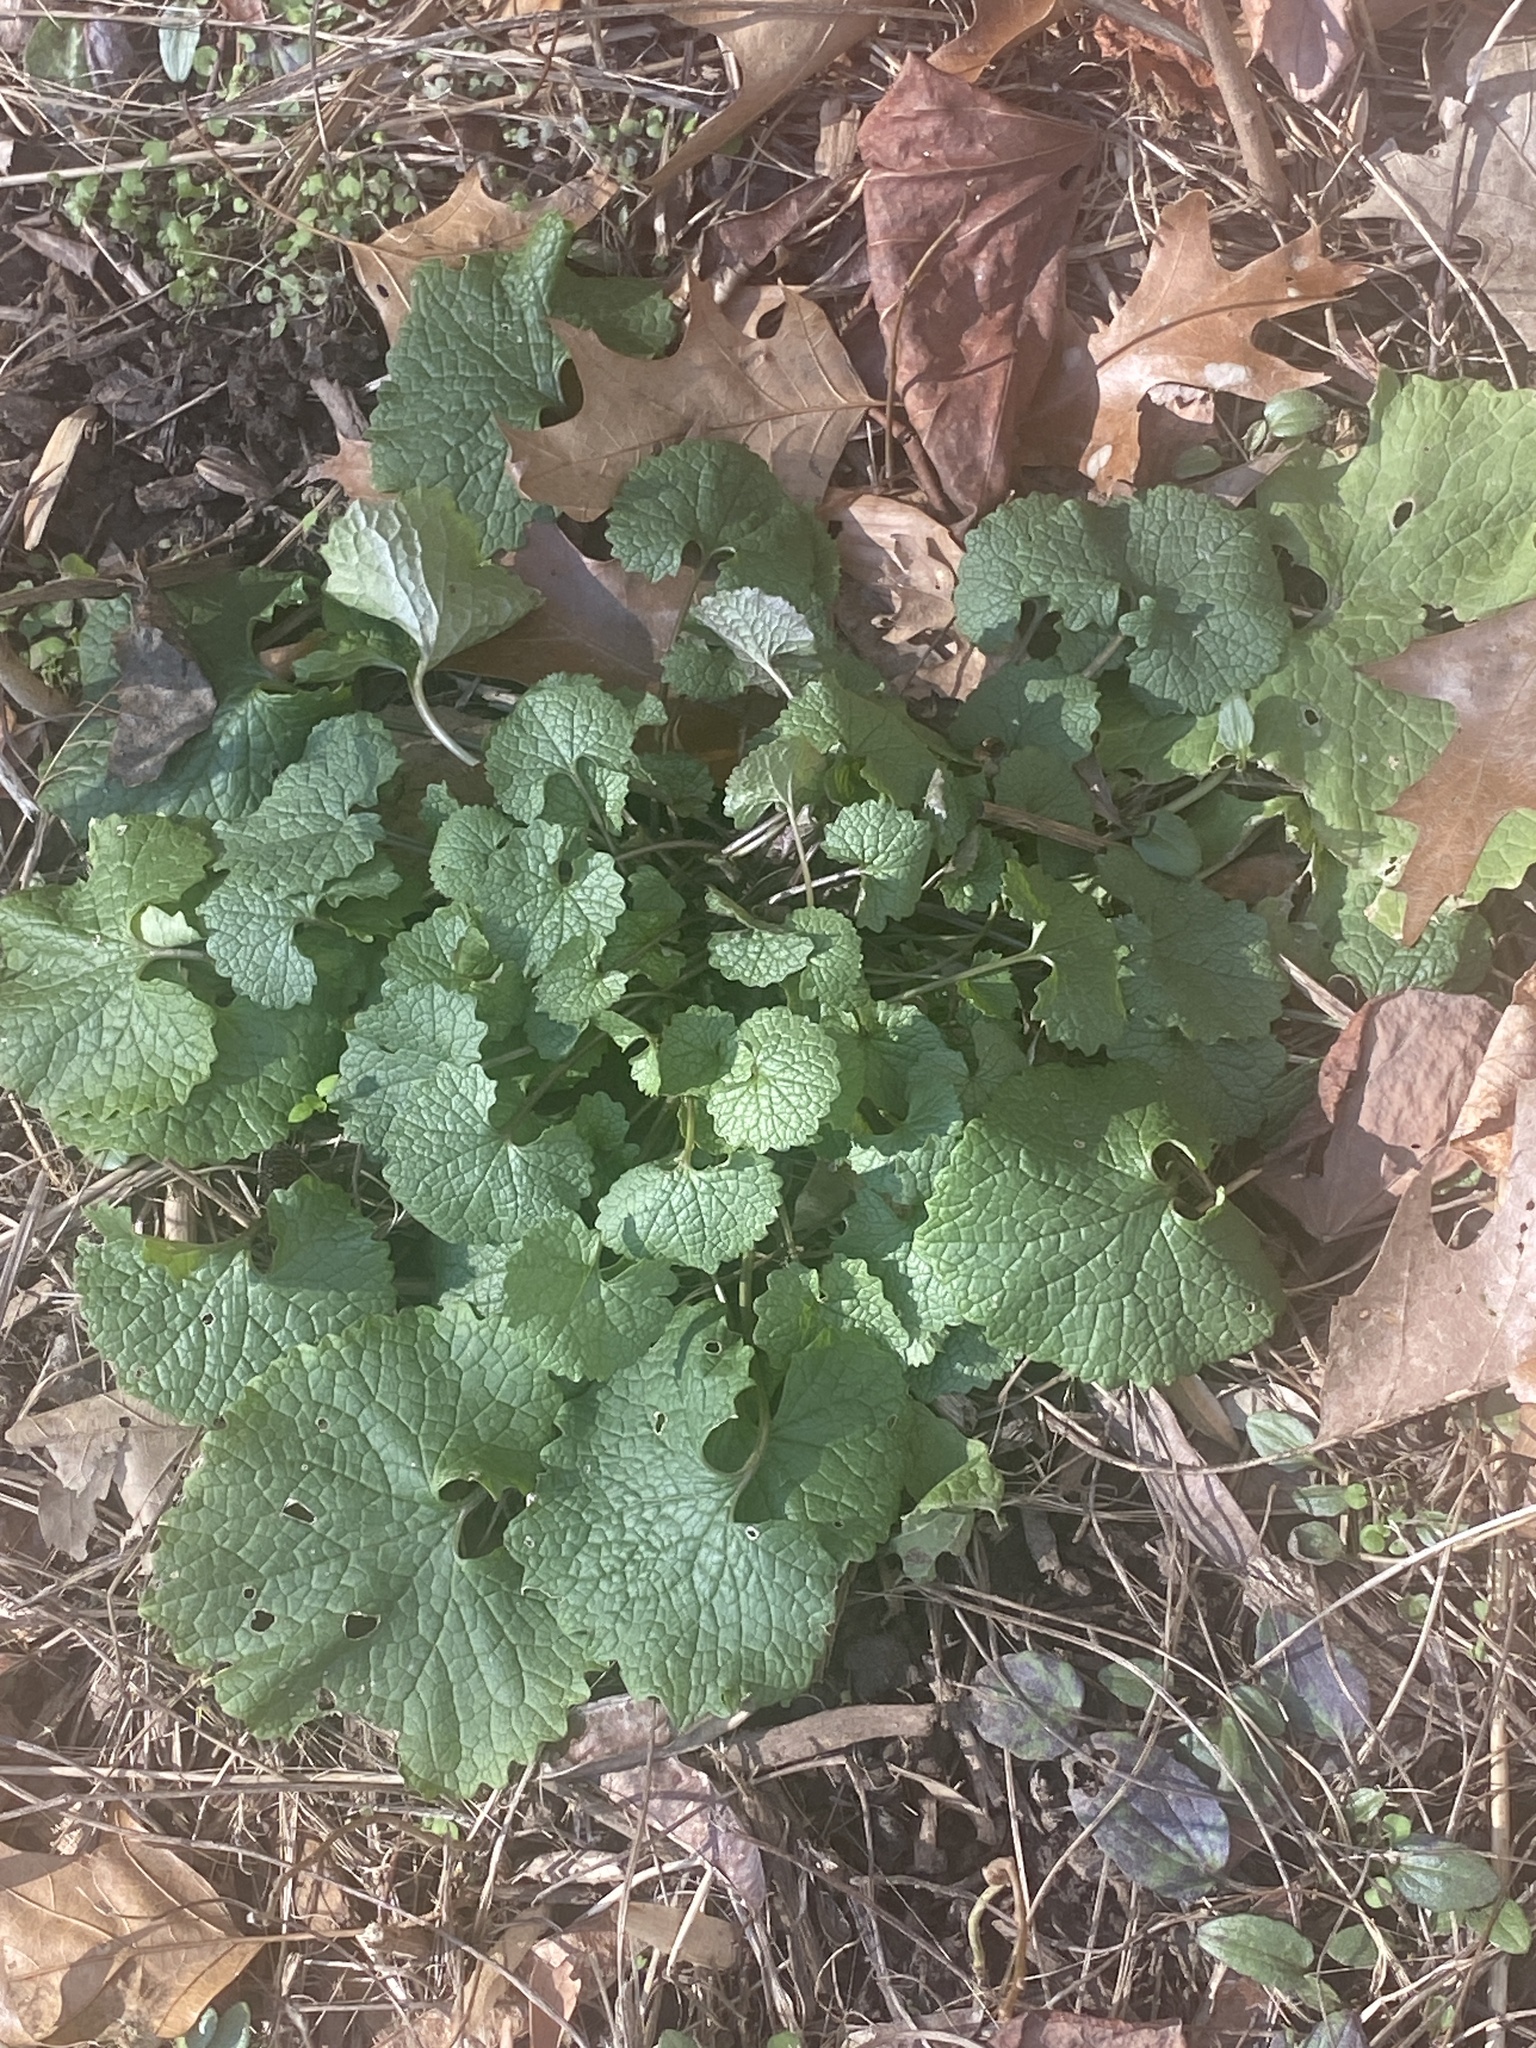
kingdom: Plantae
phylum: Tracheophyta
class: Magnoliopsida
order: Brassicales
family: Brassicaceae
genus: Alliaria
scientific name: Alliaria petiolata
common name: Garlic mustard
